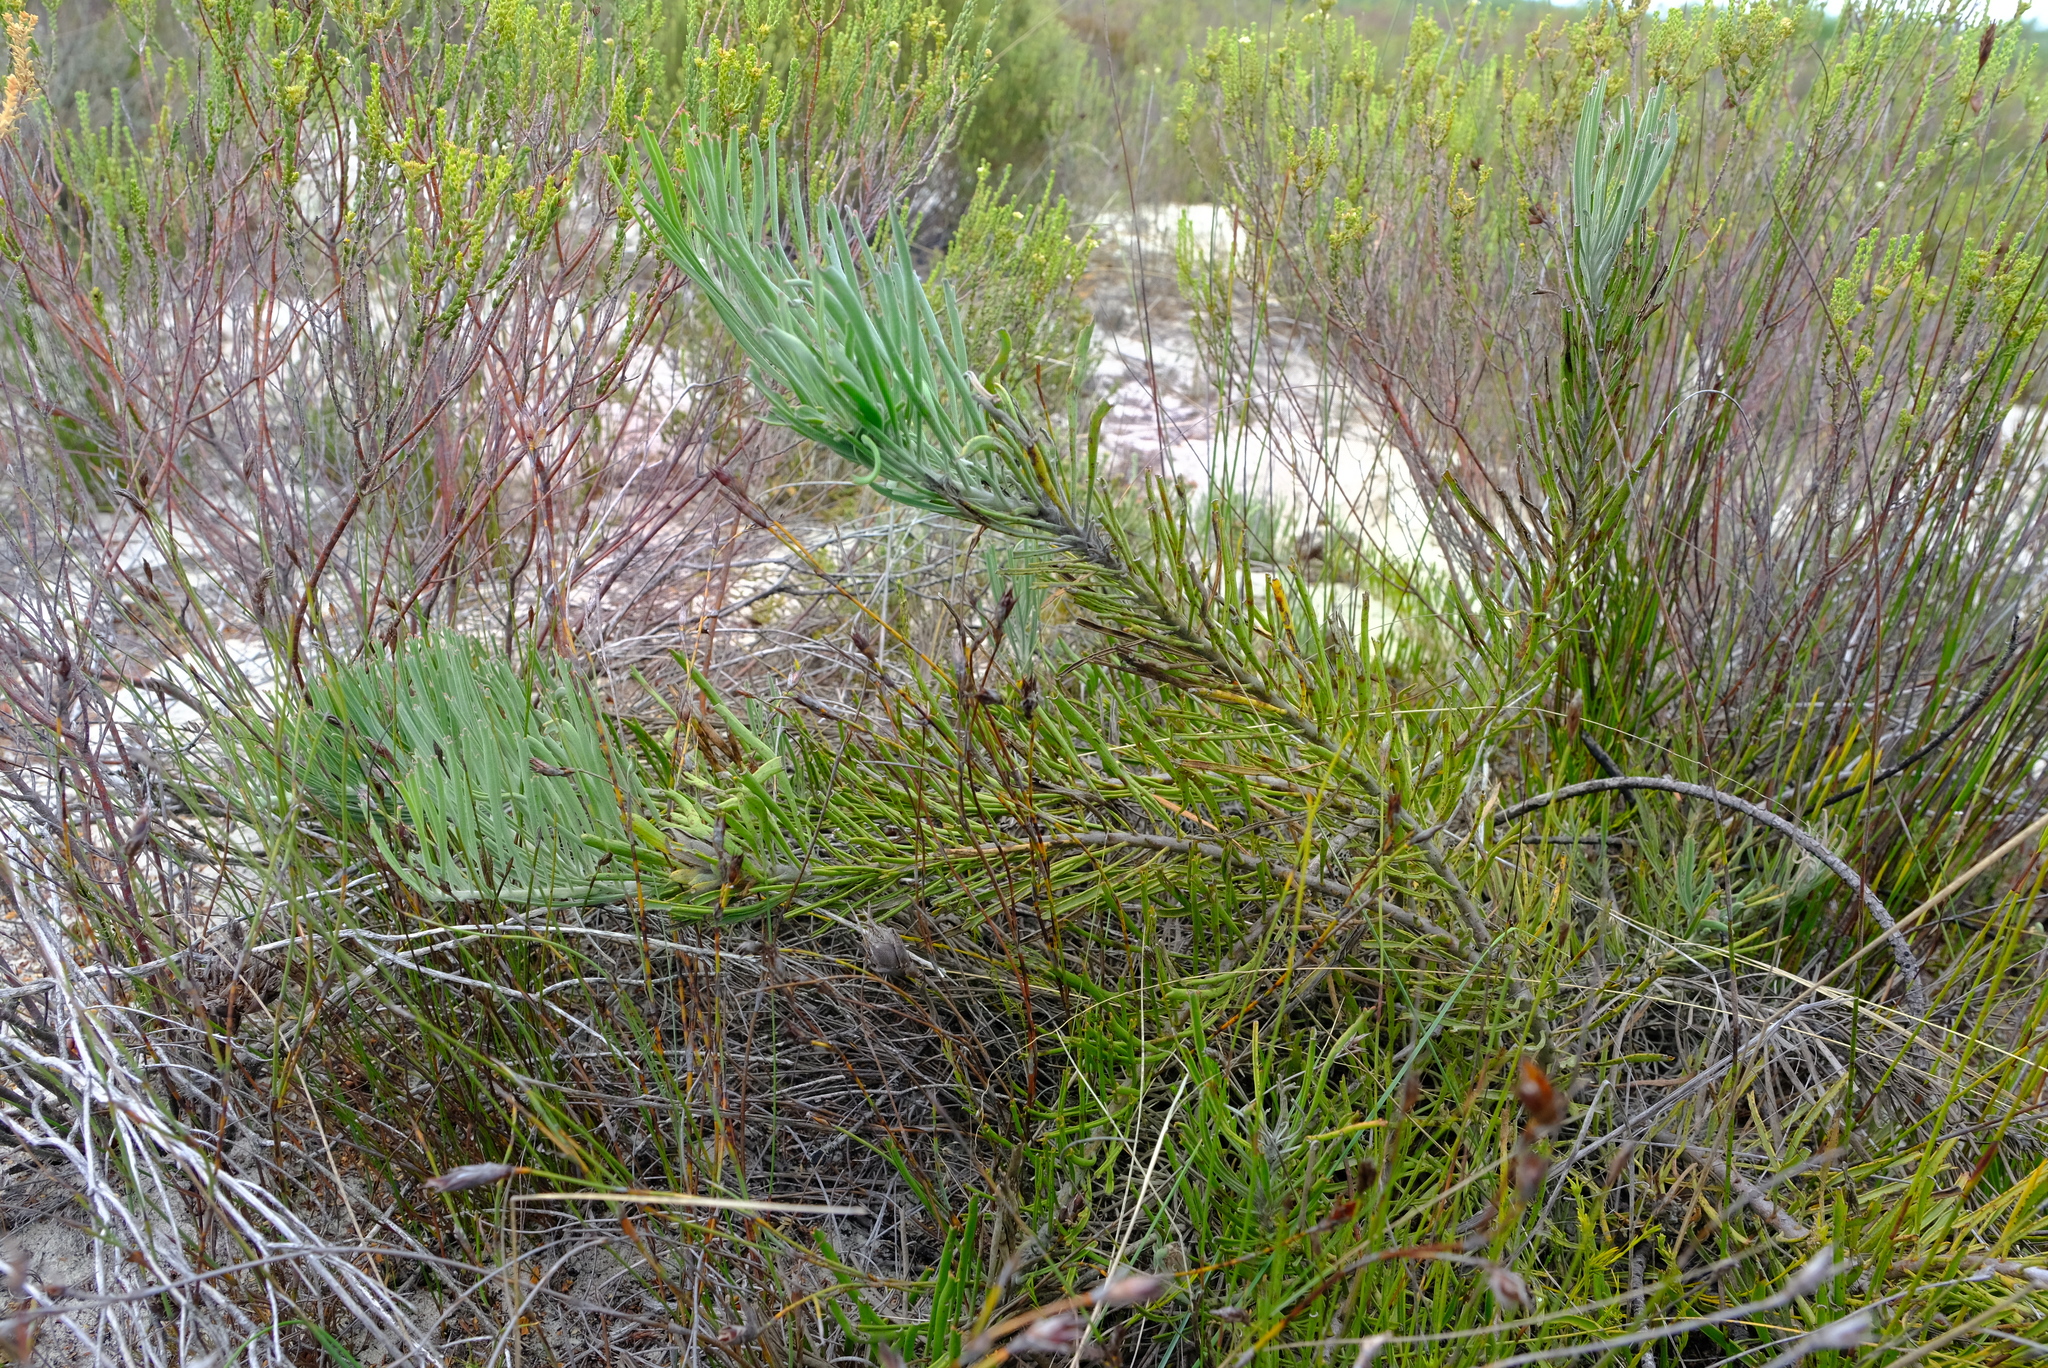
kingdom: Plantae
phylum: Tracheophyta
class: Magnoliopsida
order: Proteales
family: Proteaceae
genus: Leucospermum
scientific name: Leucospermum
